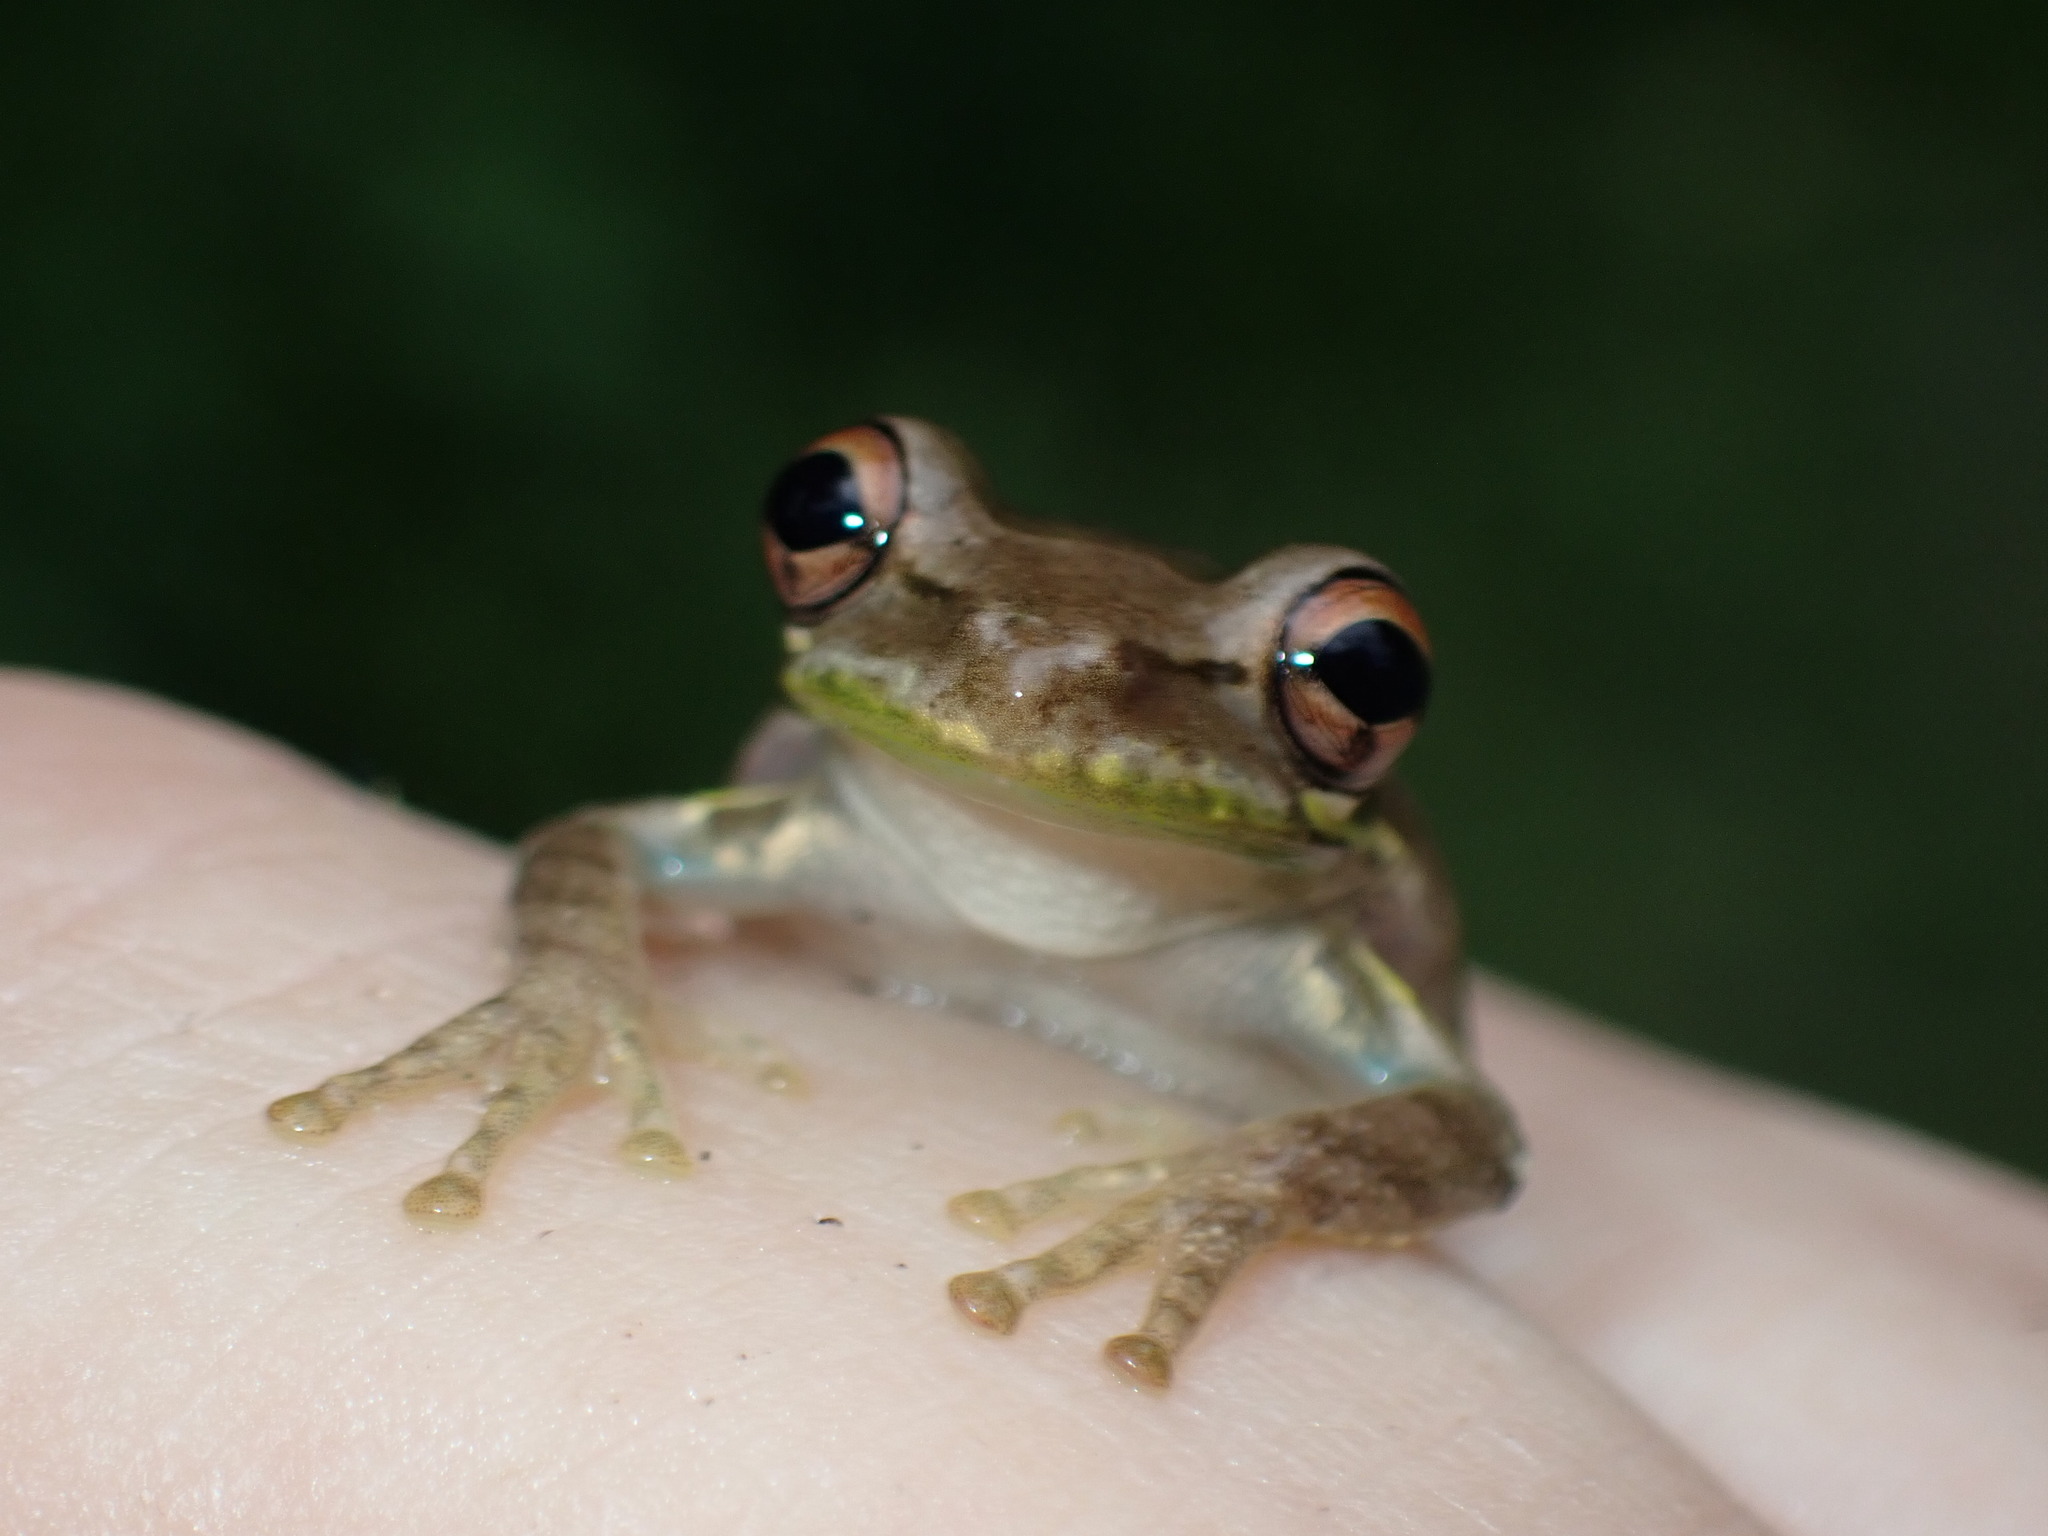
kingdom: Animalia
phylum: Chordata
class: Amphibia
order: Anura
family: Hylidae
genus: Osteopilus
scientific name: Osteopilus septentrionalis
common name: Cuban treefrog
